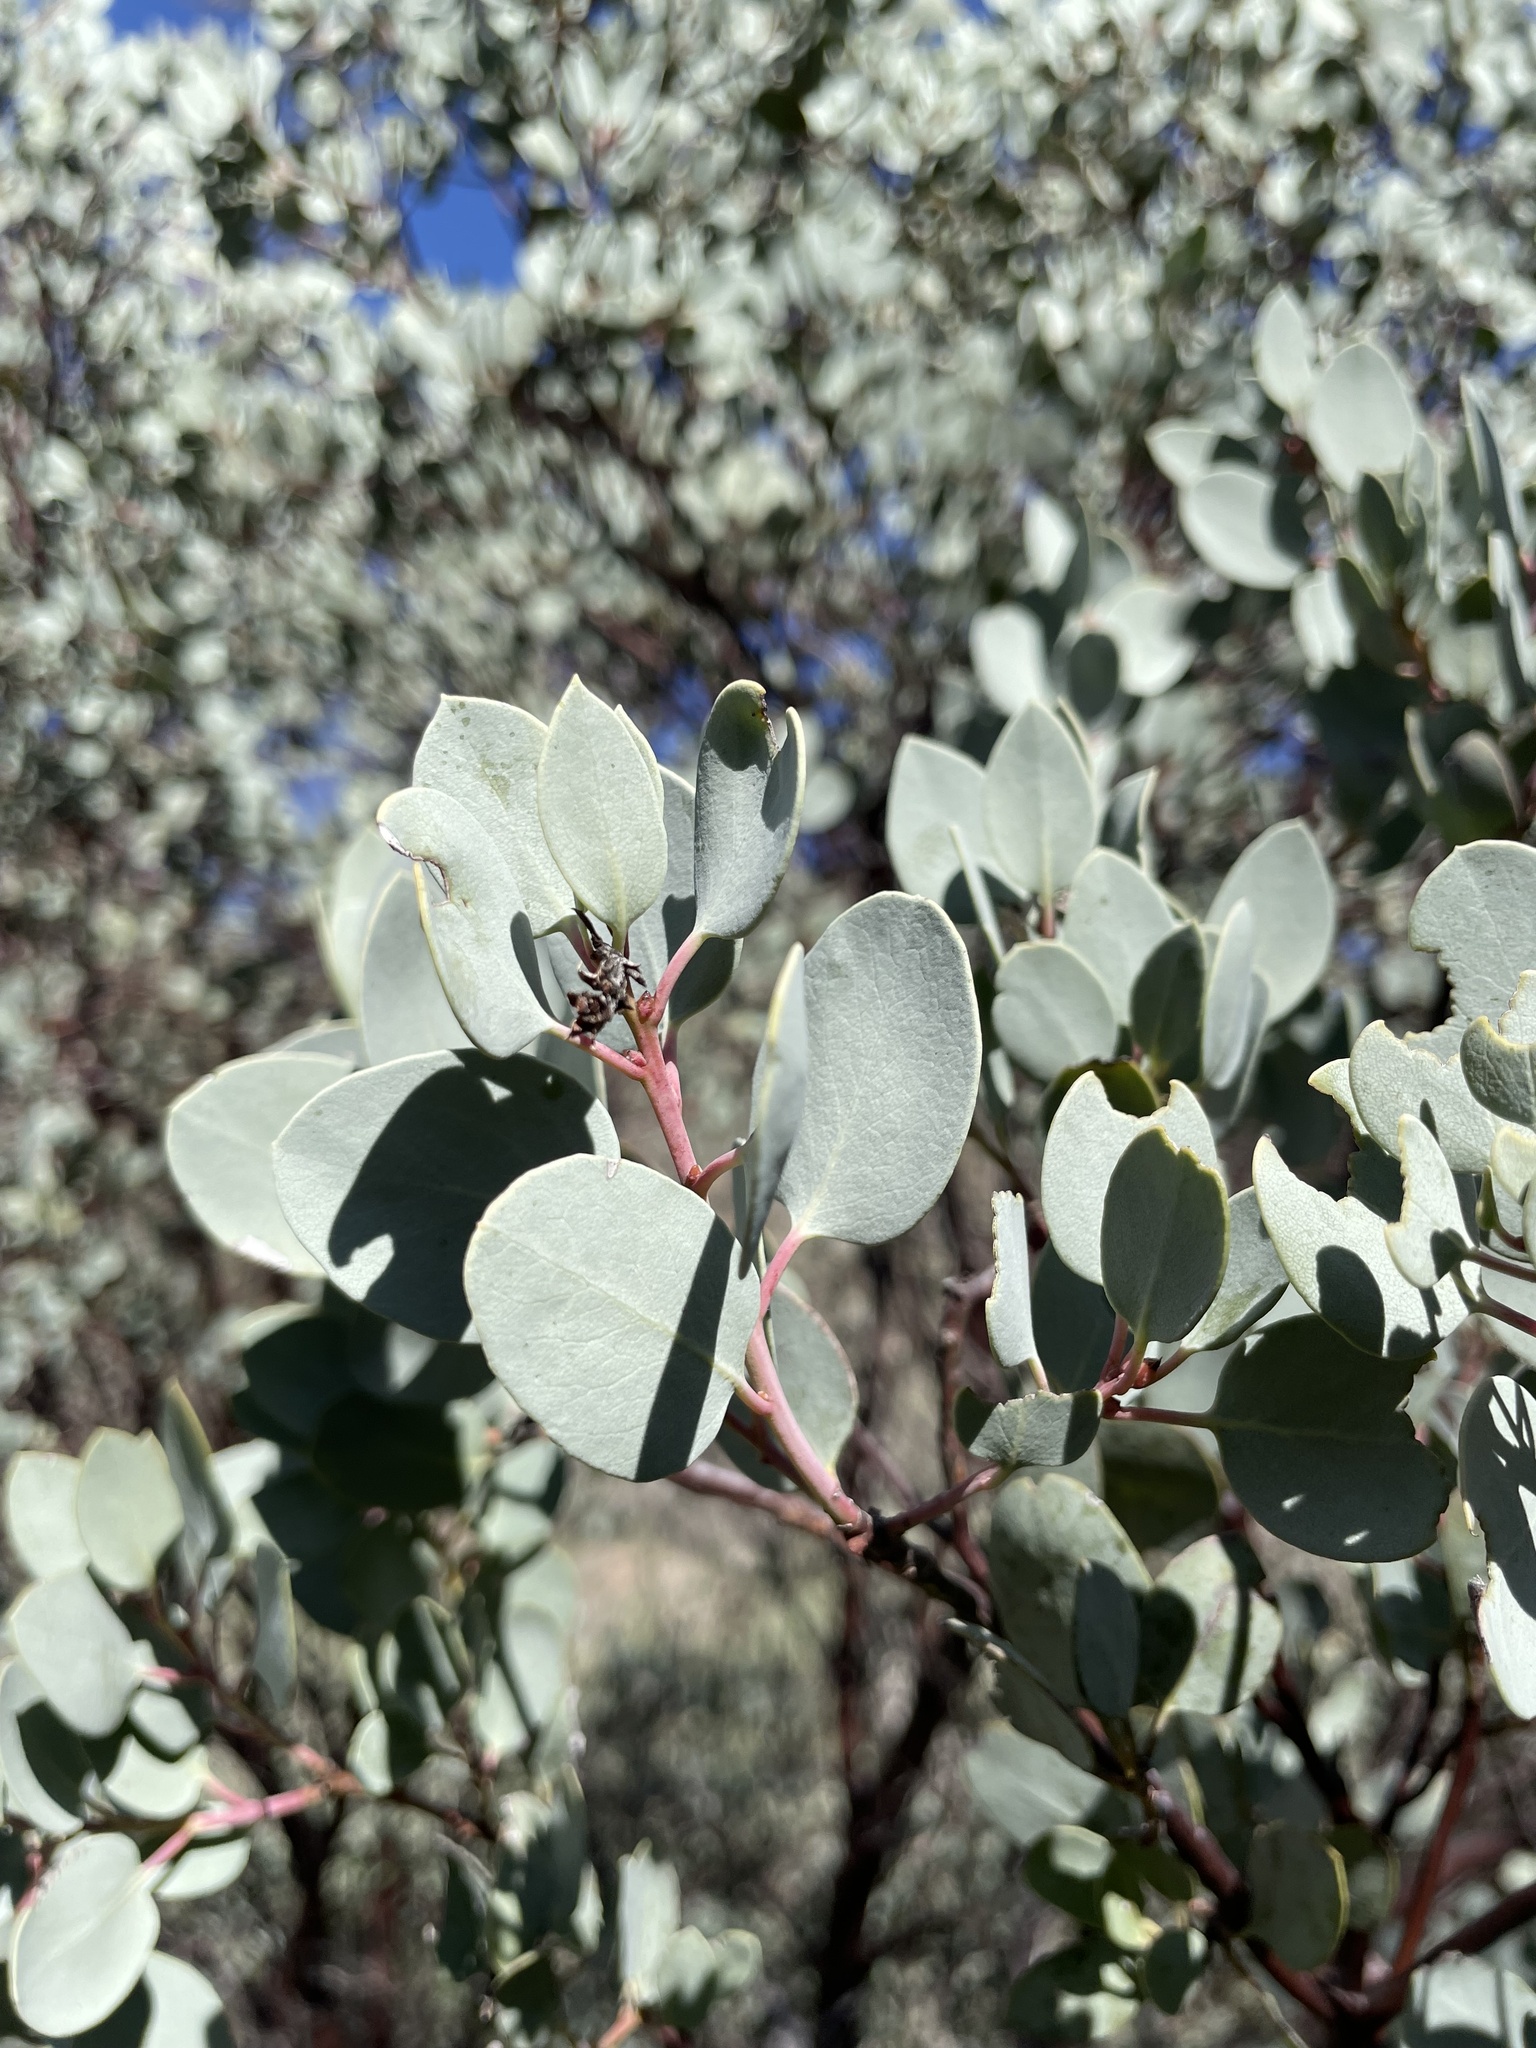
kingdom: Plantae
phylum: Tracheophyta
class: Magnoliopsida
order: Ericales
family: Ericaceae
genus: Arctostaphylos
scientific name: Arctostaphylos glauca
